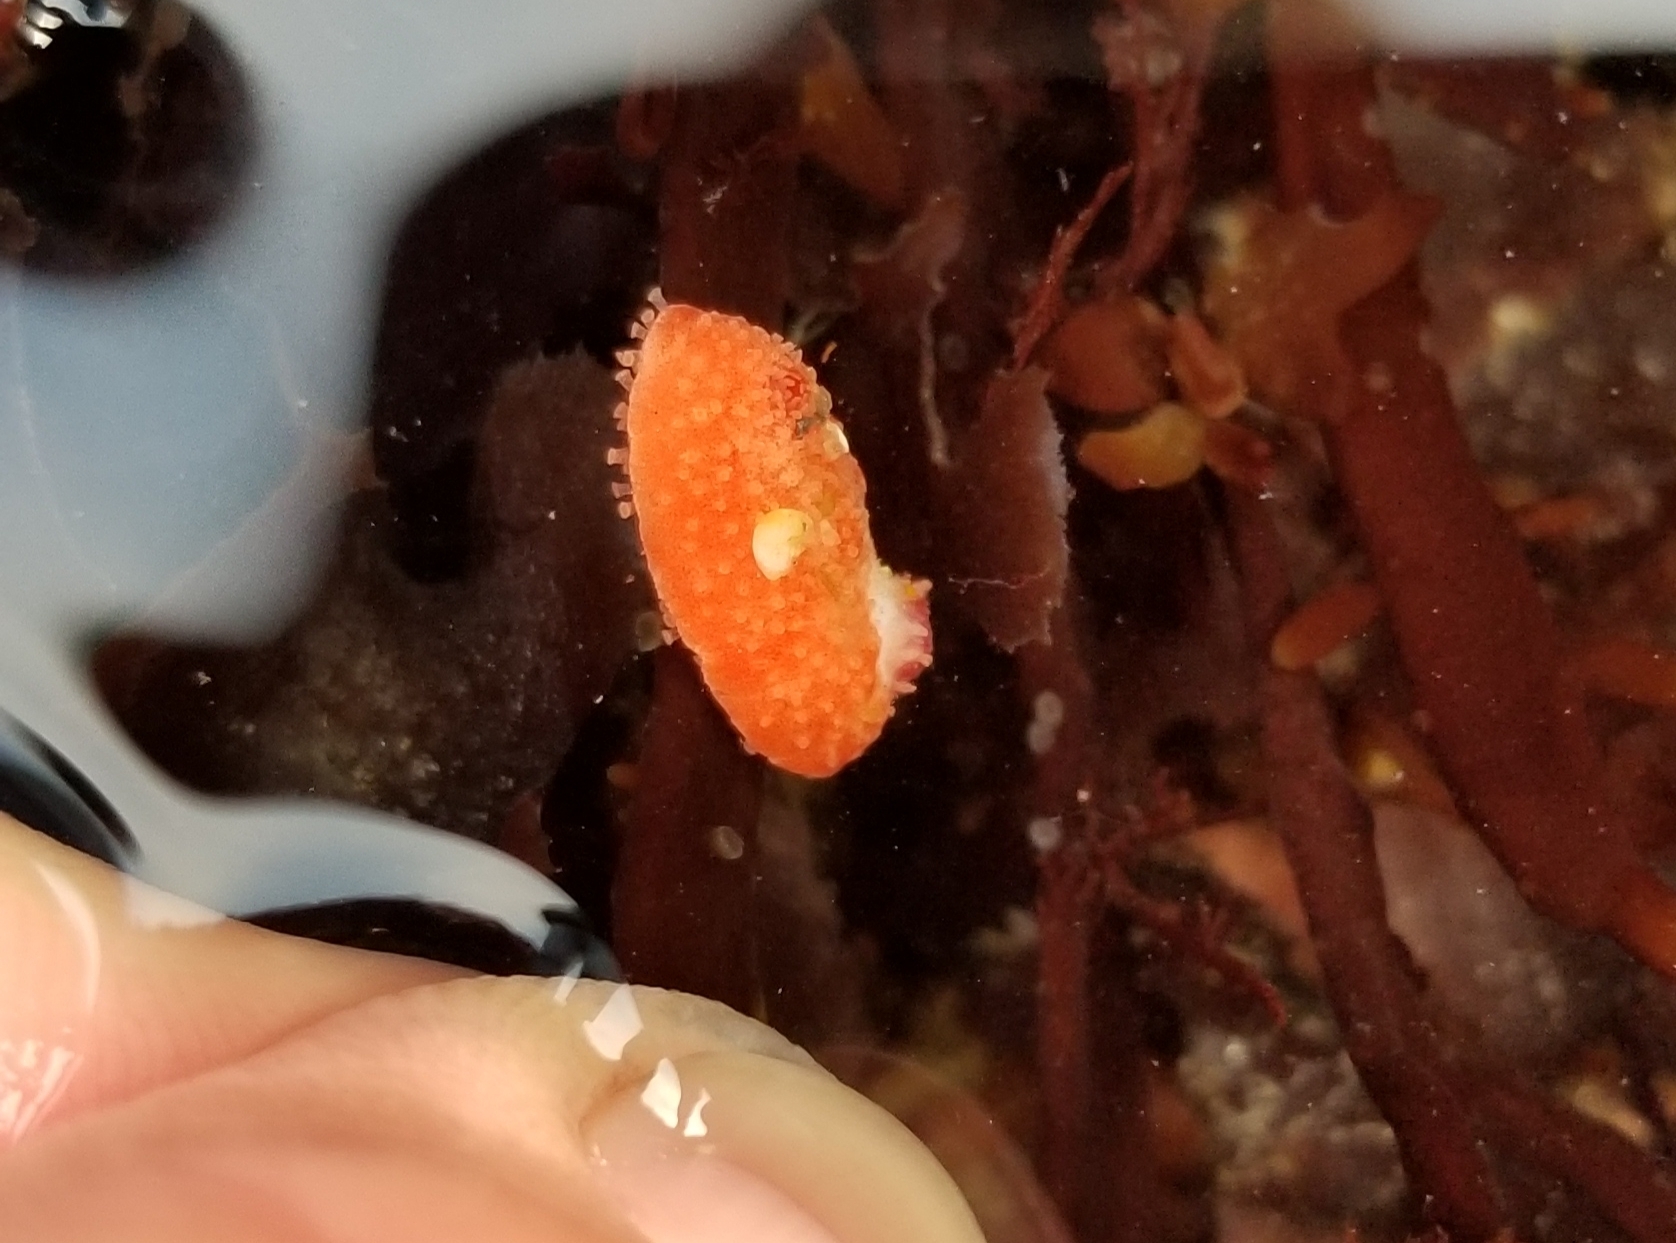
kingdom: Animalia
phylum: Echinodermata
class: Holothuroidea
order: Dendrochirotida
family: Psolidae
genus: Lissothuria
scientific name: Lissothuria nutriens
